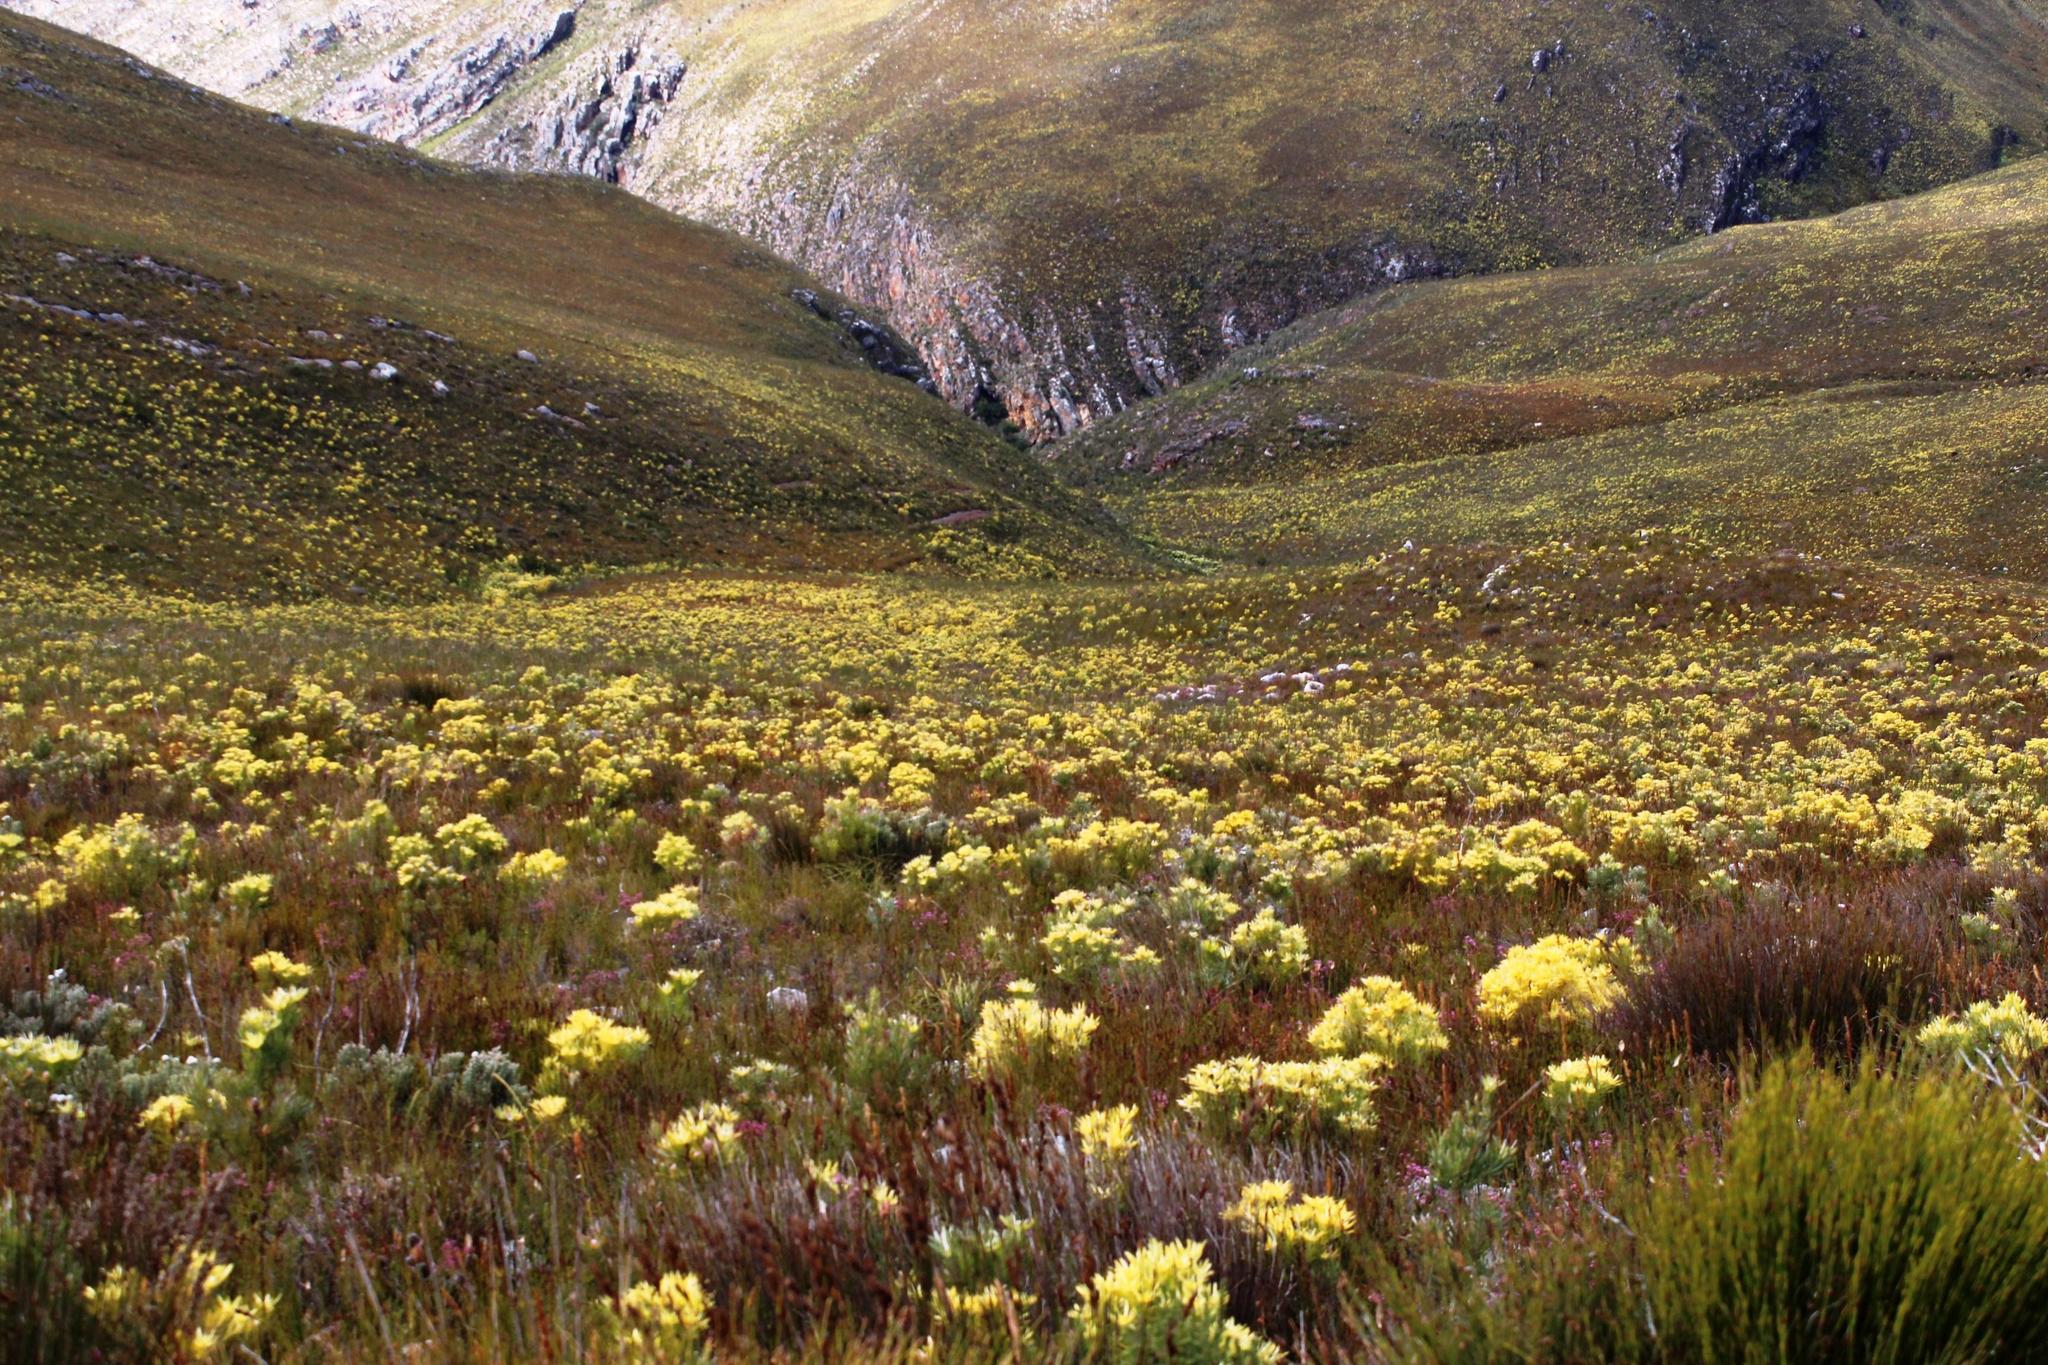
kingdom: Plantae
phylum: Tracheophyta
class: Magnoliopsida
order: Proteales
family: Proteaceae
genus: Leucadendron
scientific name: Leucadendron xanthoconus
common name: Sickle-leaf conebush
